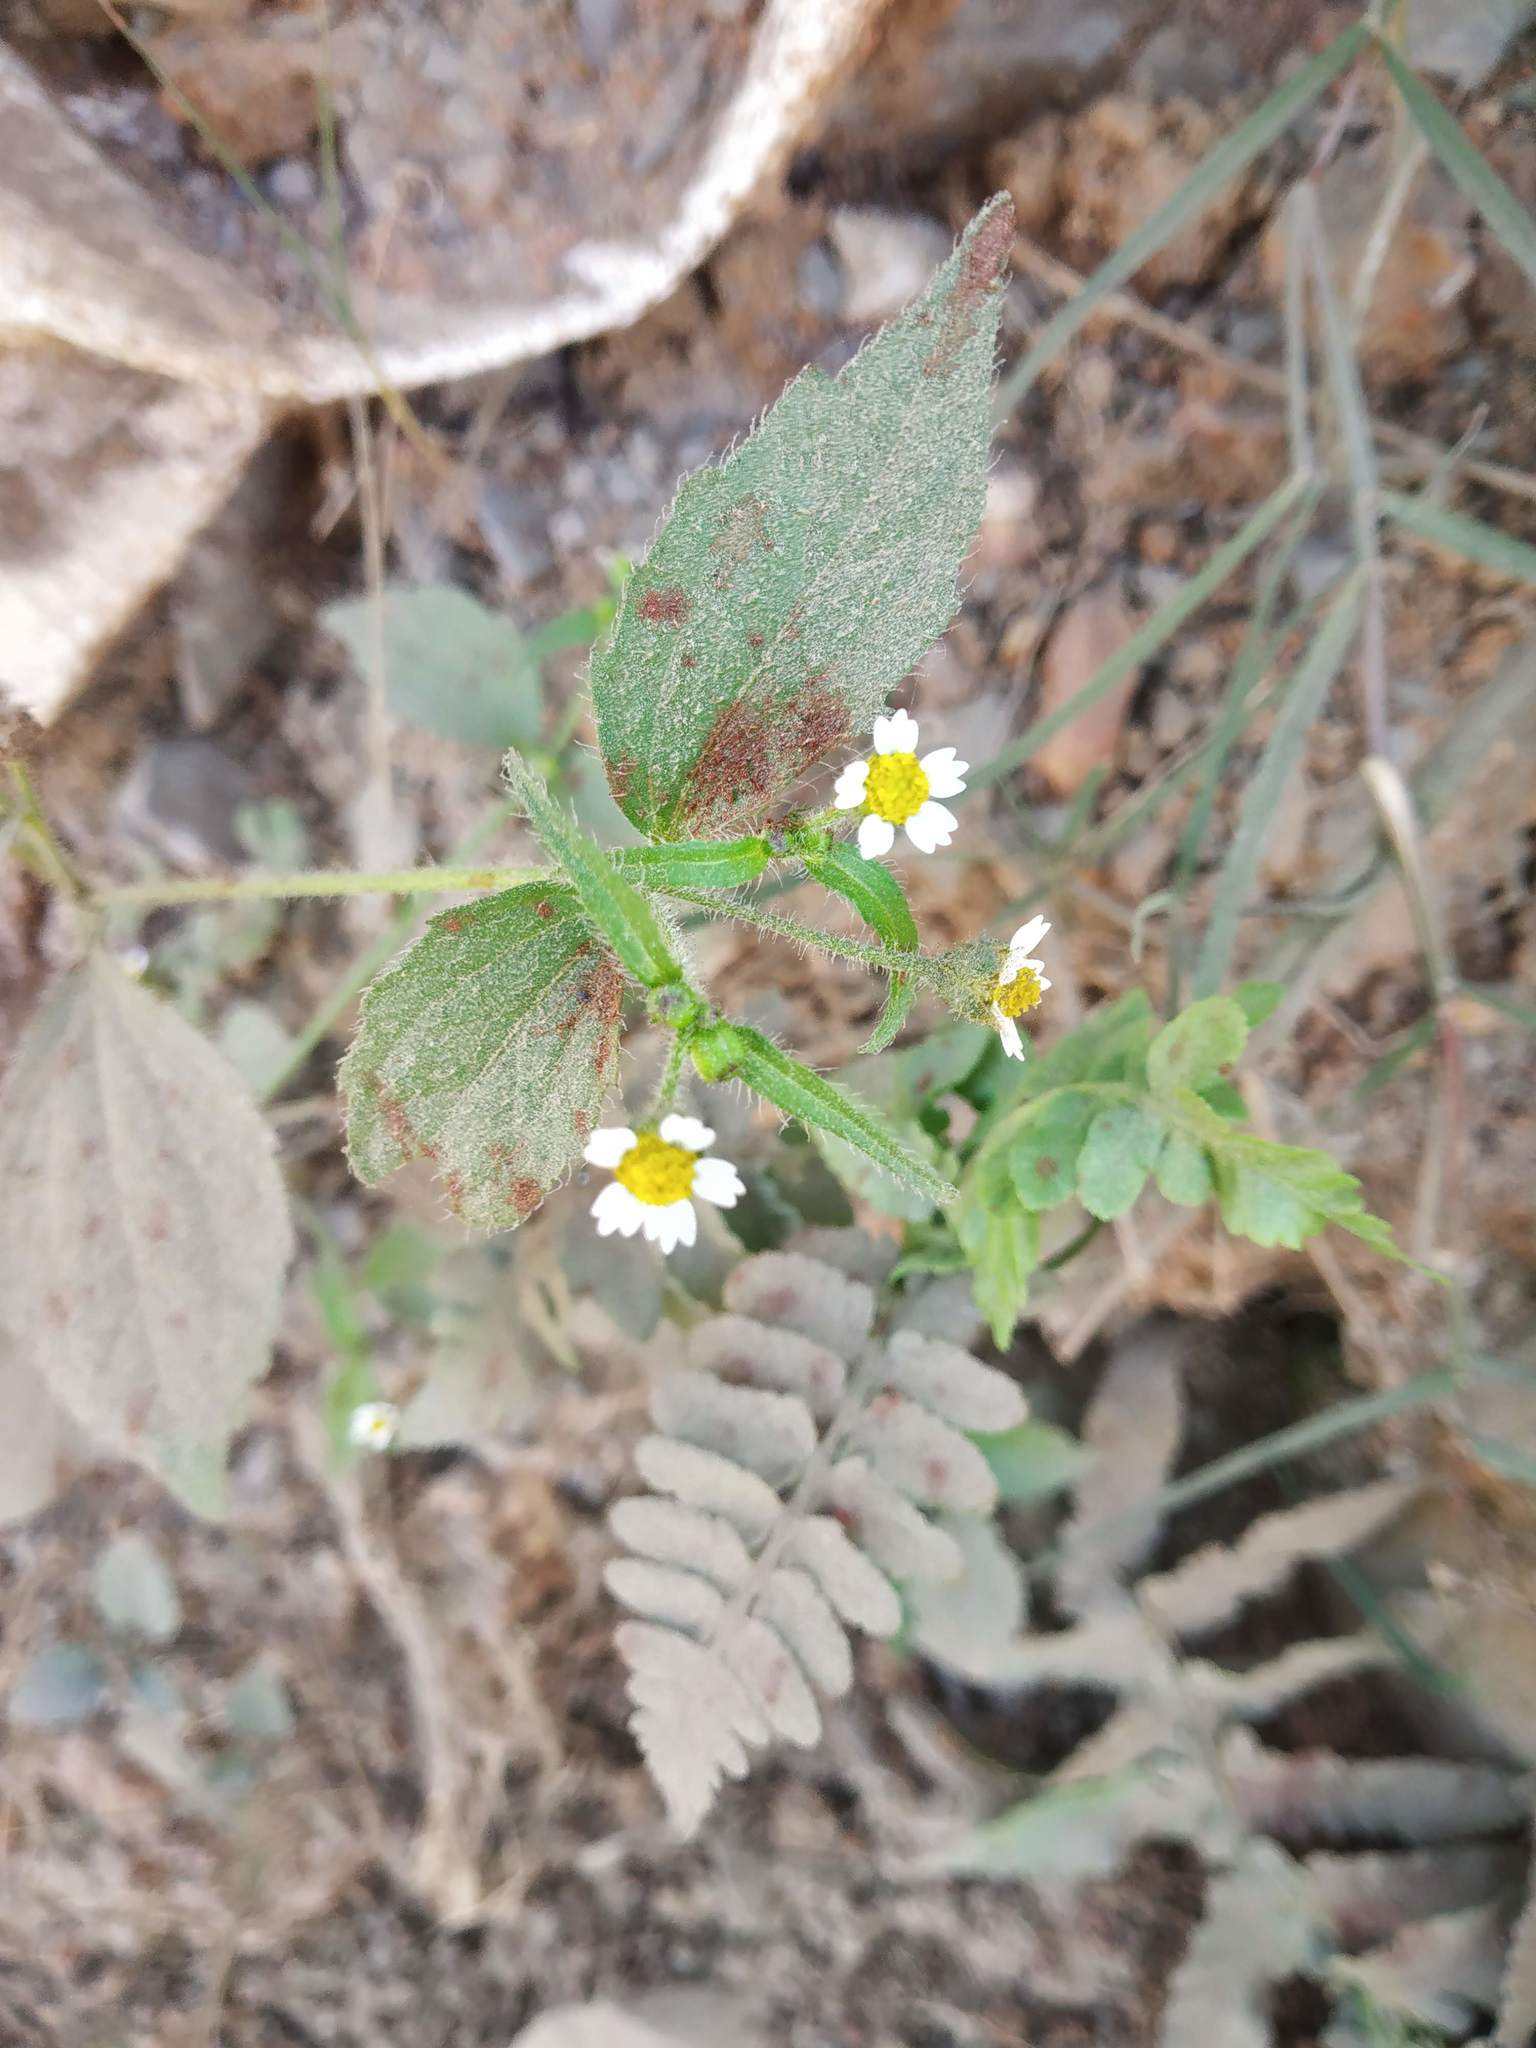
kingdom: Plantae
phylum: Tracheophyta
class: Magnoliopsida
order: Asterales
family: Asteraceae
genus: Galinsoga
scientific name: Galinsoga quadriradiata
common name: Shaggy soldier
